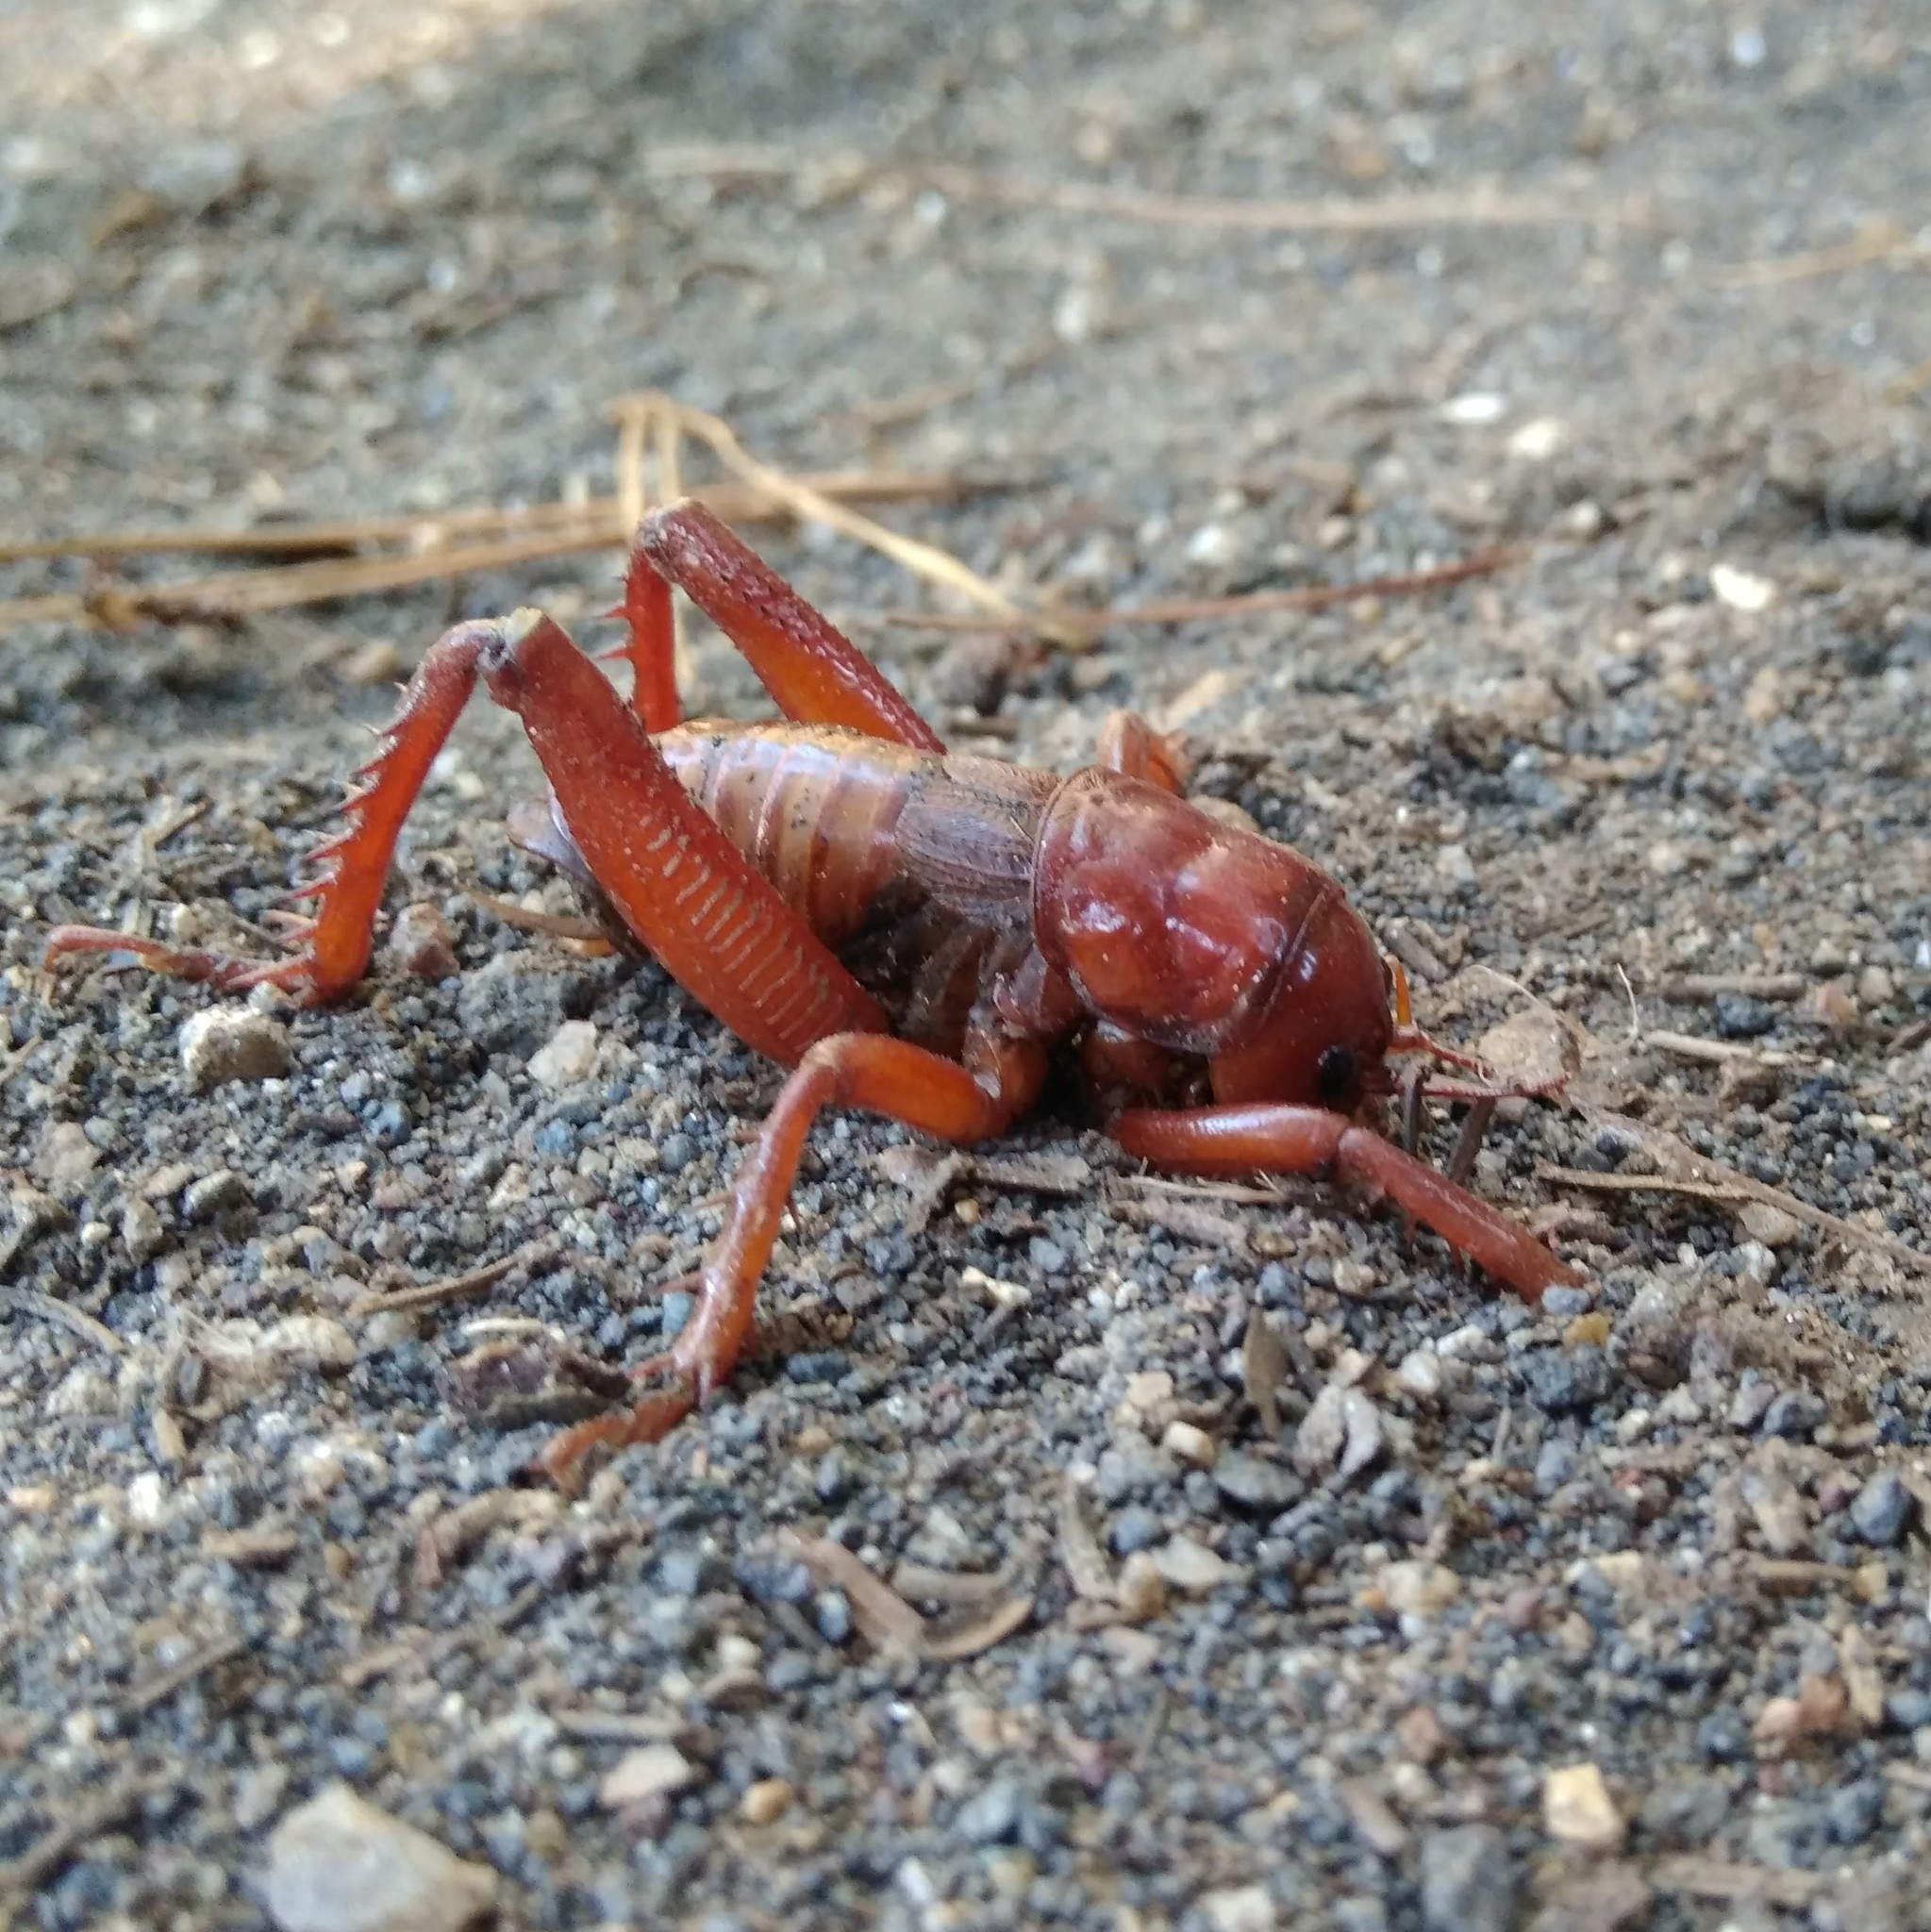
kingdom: Animalia
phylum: Arthropoda
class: Insecta
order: Orthoptera
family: Anostostomatidae
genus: Cratomelus
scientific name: Cratomelus armatus
